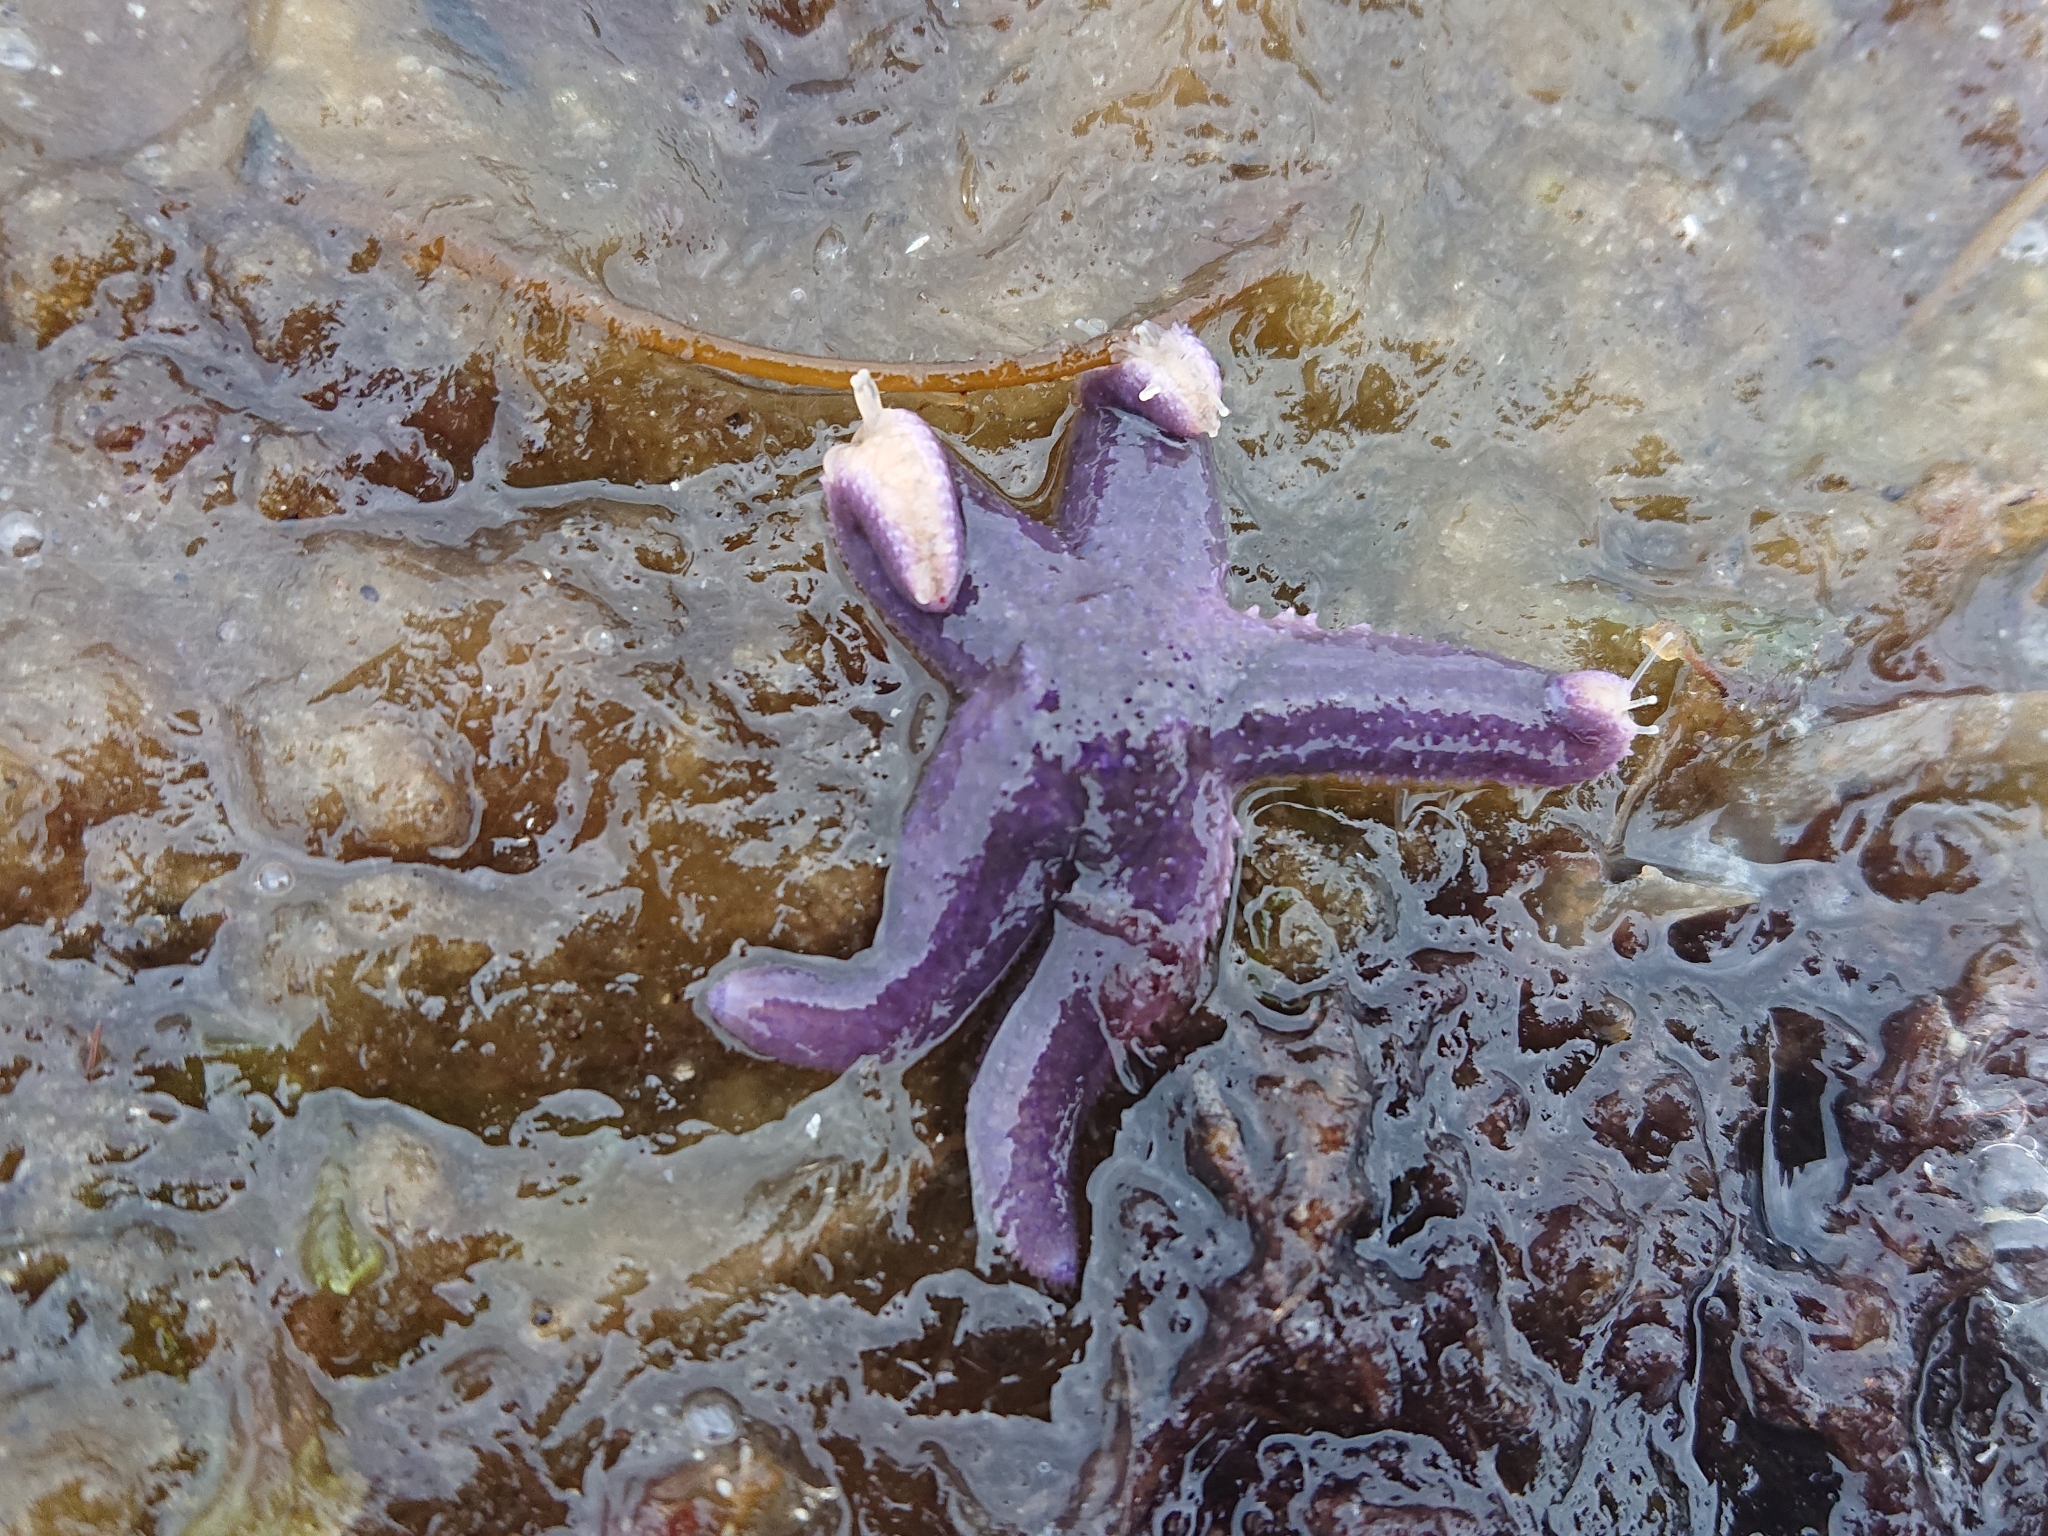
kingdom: Animalia
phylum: Echinodermata
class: Asteroidea
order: Forcipulatida
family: Asteriidae
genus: Asterias
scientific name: Asterias rubens
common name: Common starfish
